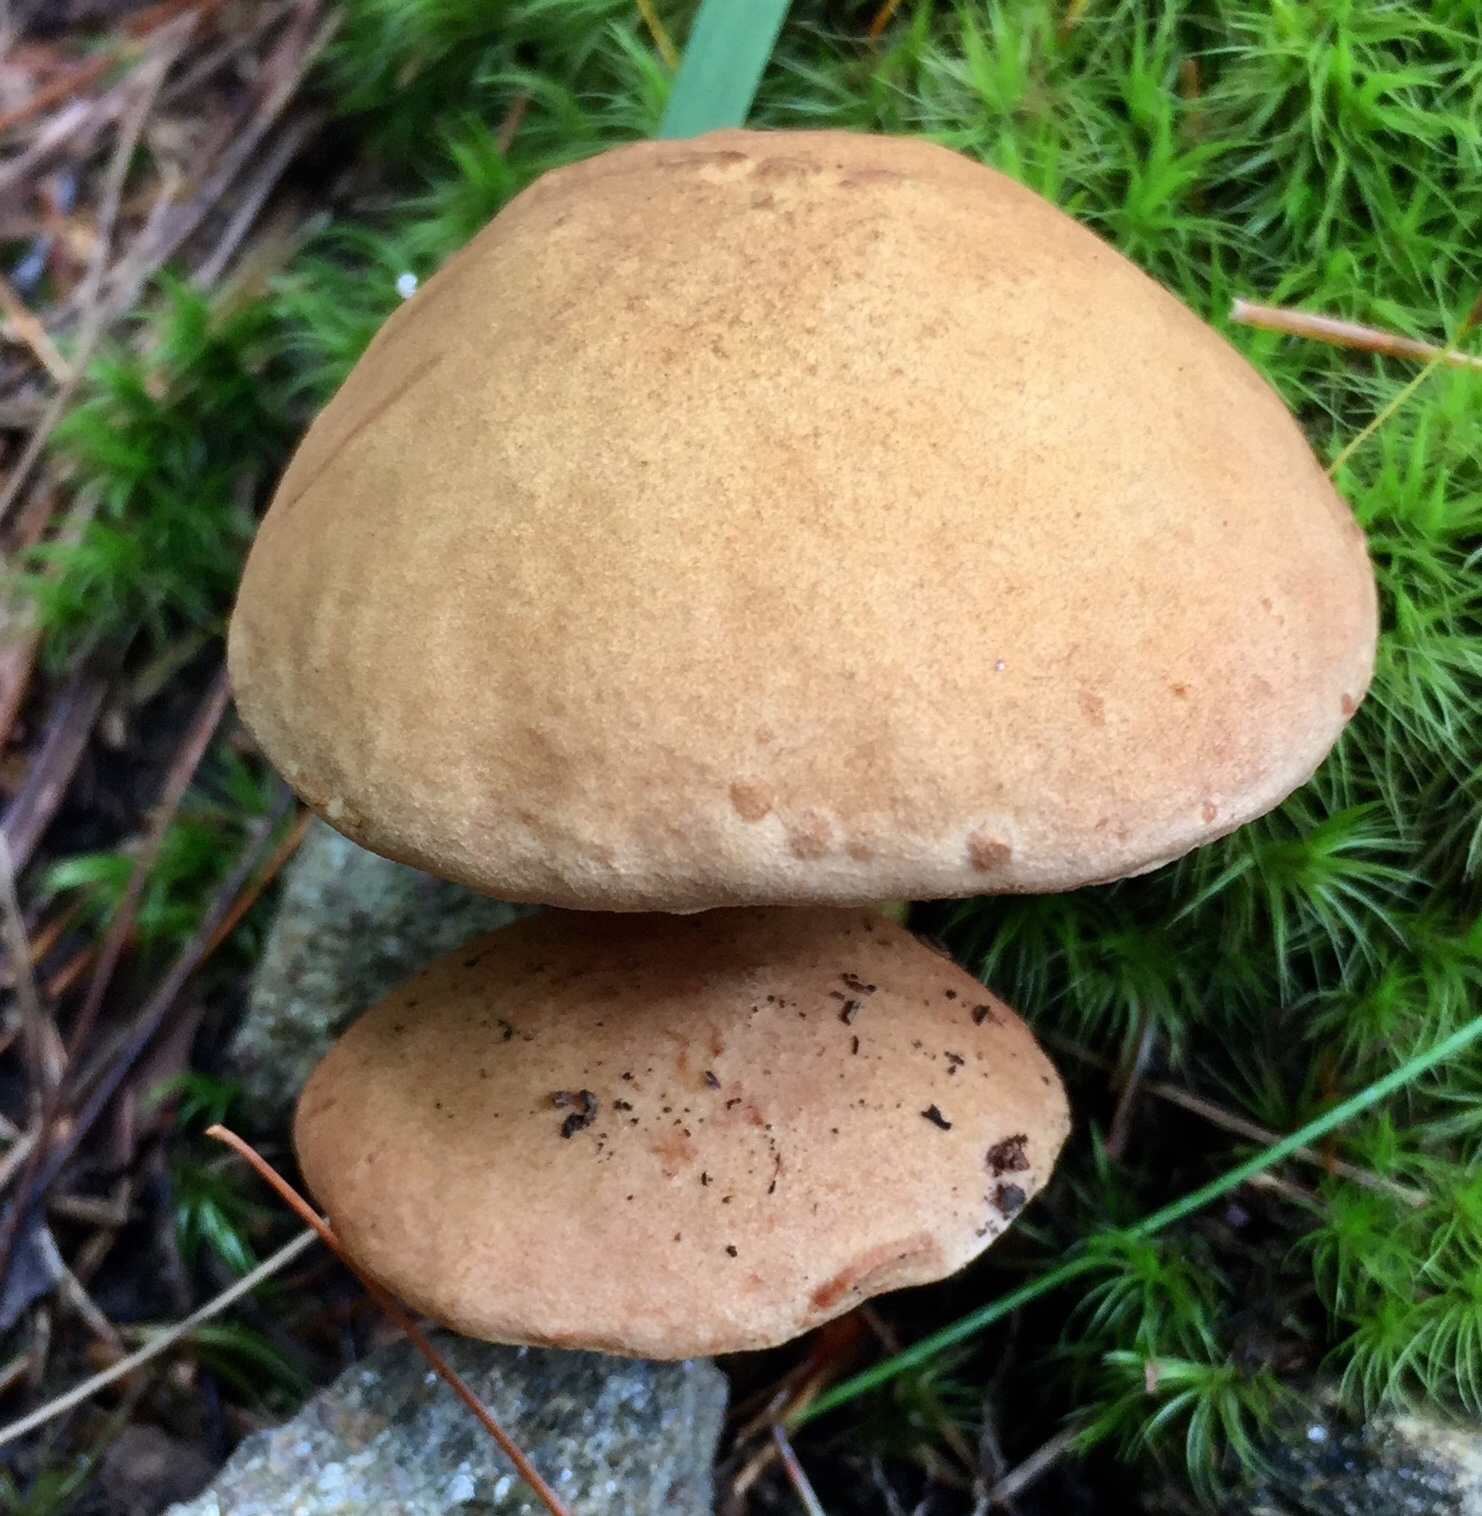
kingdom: Fungi
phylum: Basidiomycota
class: Agaricomycetes
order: Boletales
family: Boletaceae
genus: Aureoboletus
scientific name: Aureoboletus innixus
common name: Clustered brown bolete
